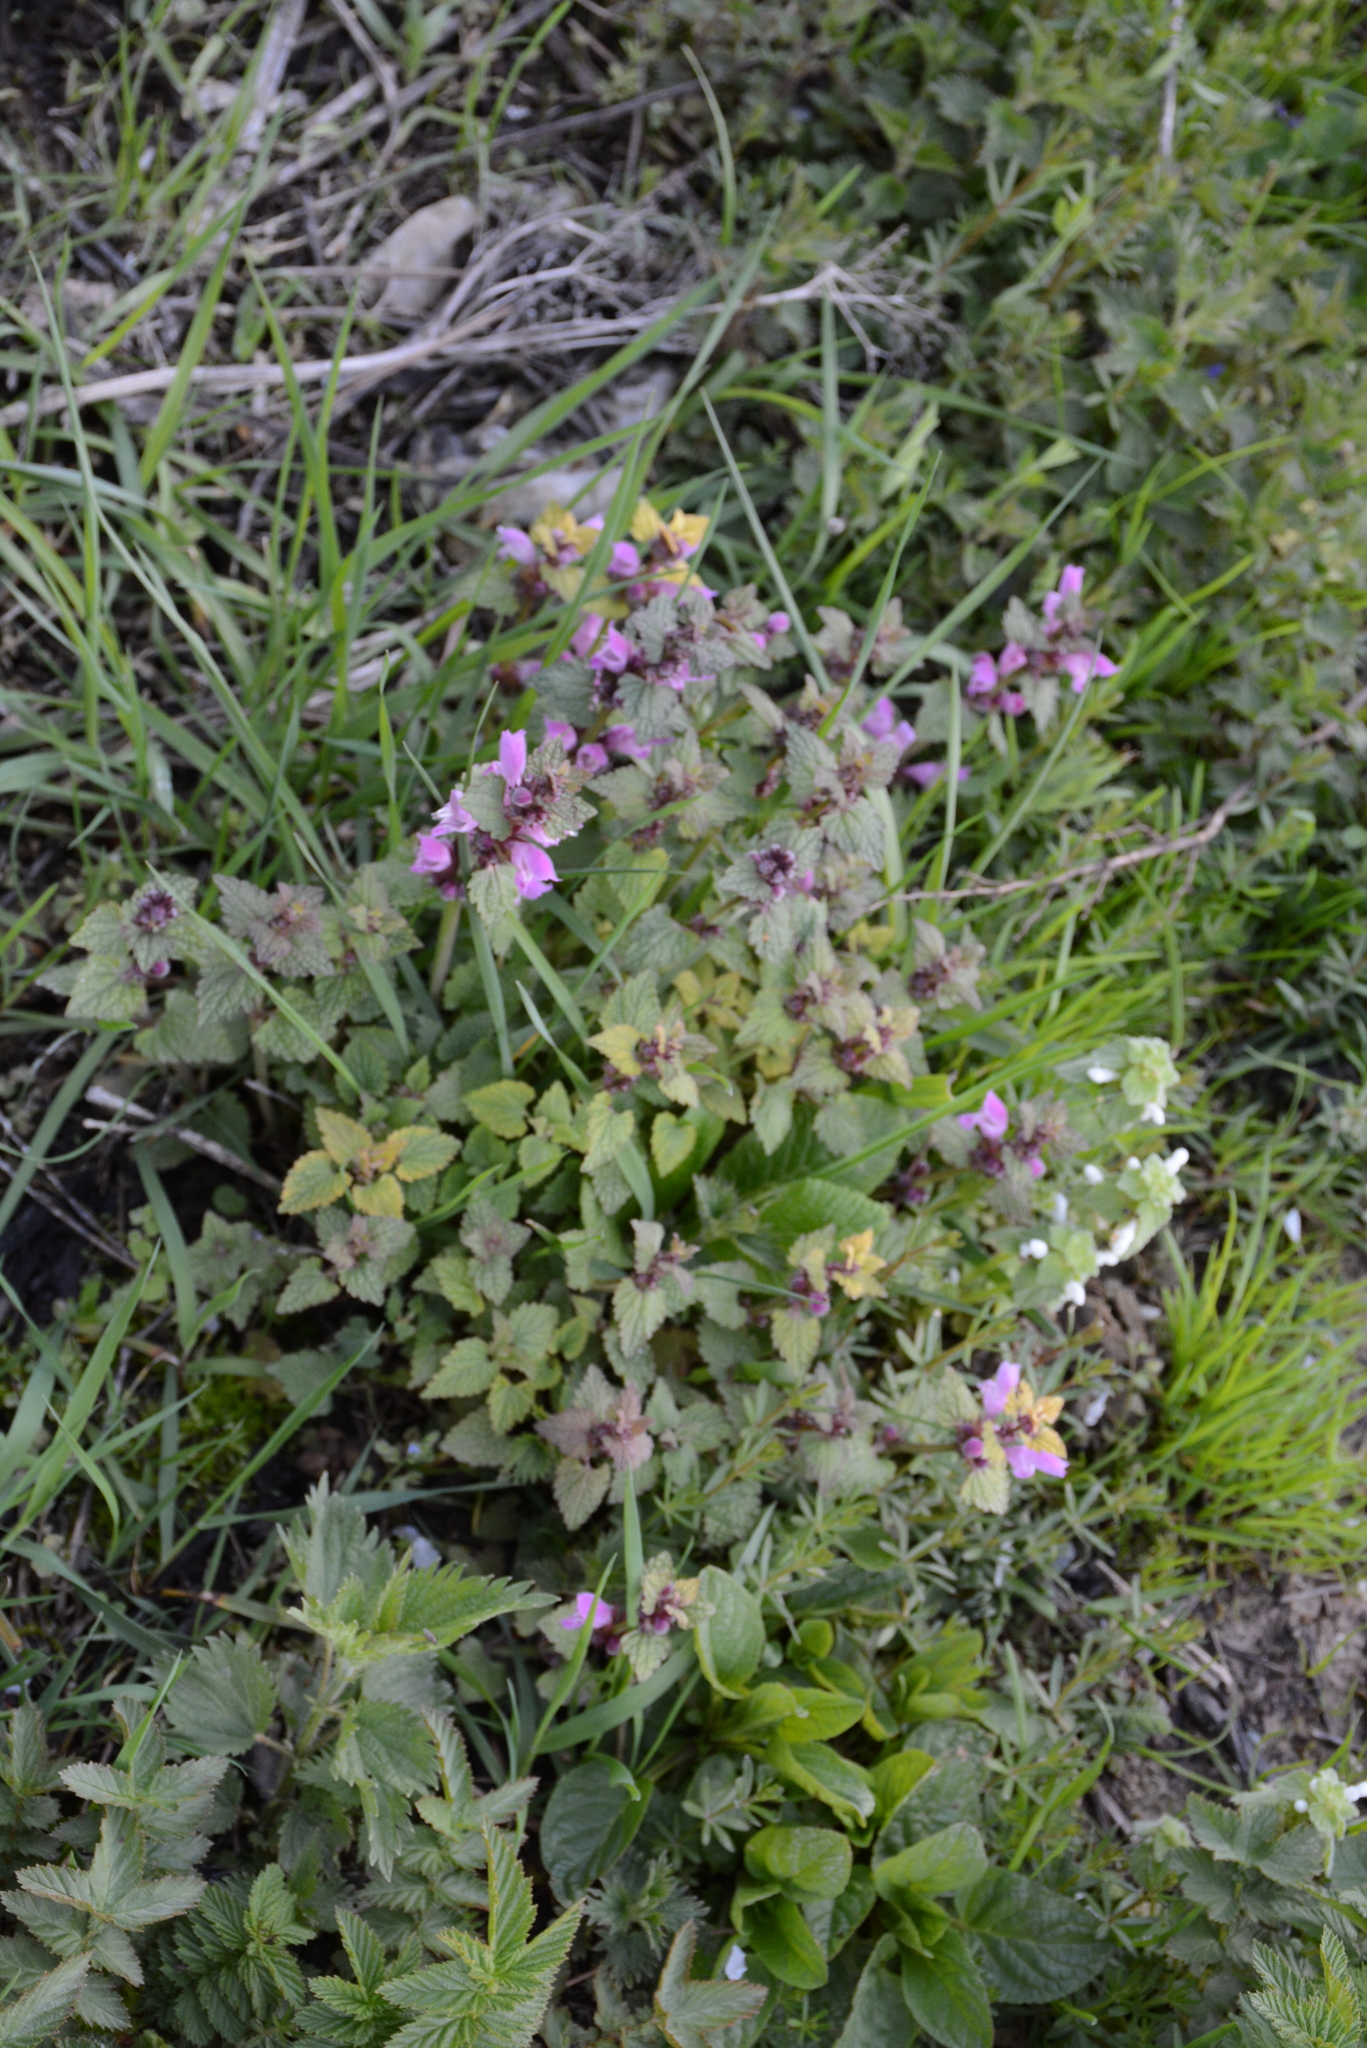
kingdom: Plantae
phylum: Tracheophyta
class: Magnoliopsida
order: Lamiales
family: Lamiaceae
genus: Lamium
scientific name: Lamium garganicum
